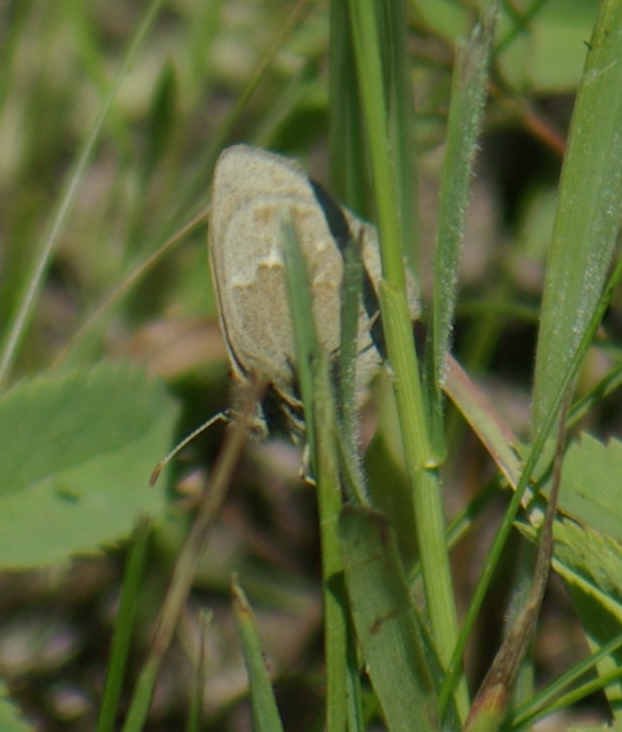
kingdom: Animalia
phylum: Arthropoda
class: Insecta
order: Lepidoptera
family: Nymphalidae
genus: Coenonympha
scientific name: Coenonympha california
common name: Common ringlet
